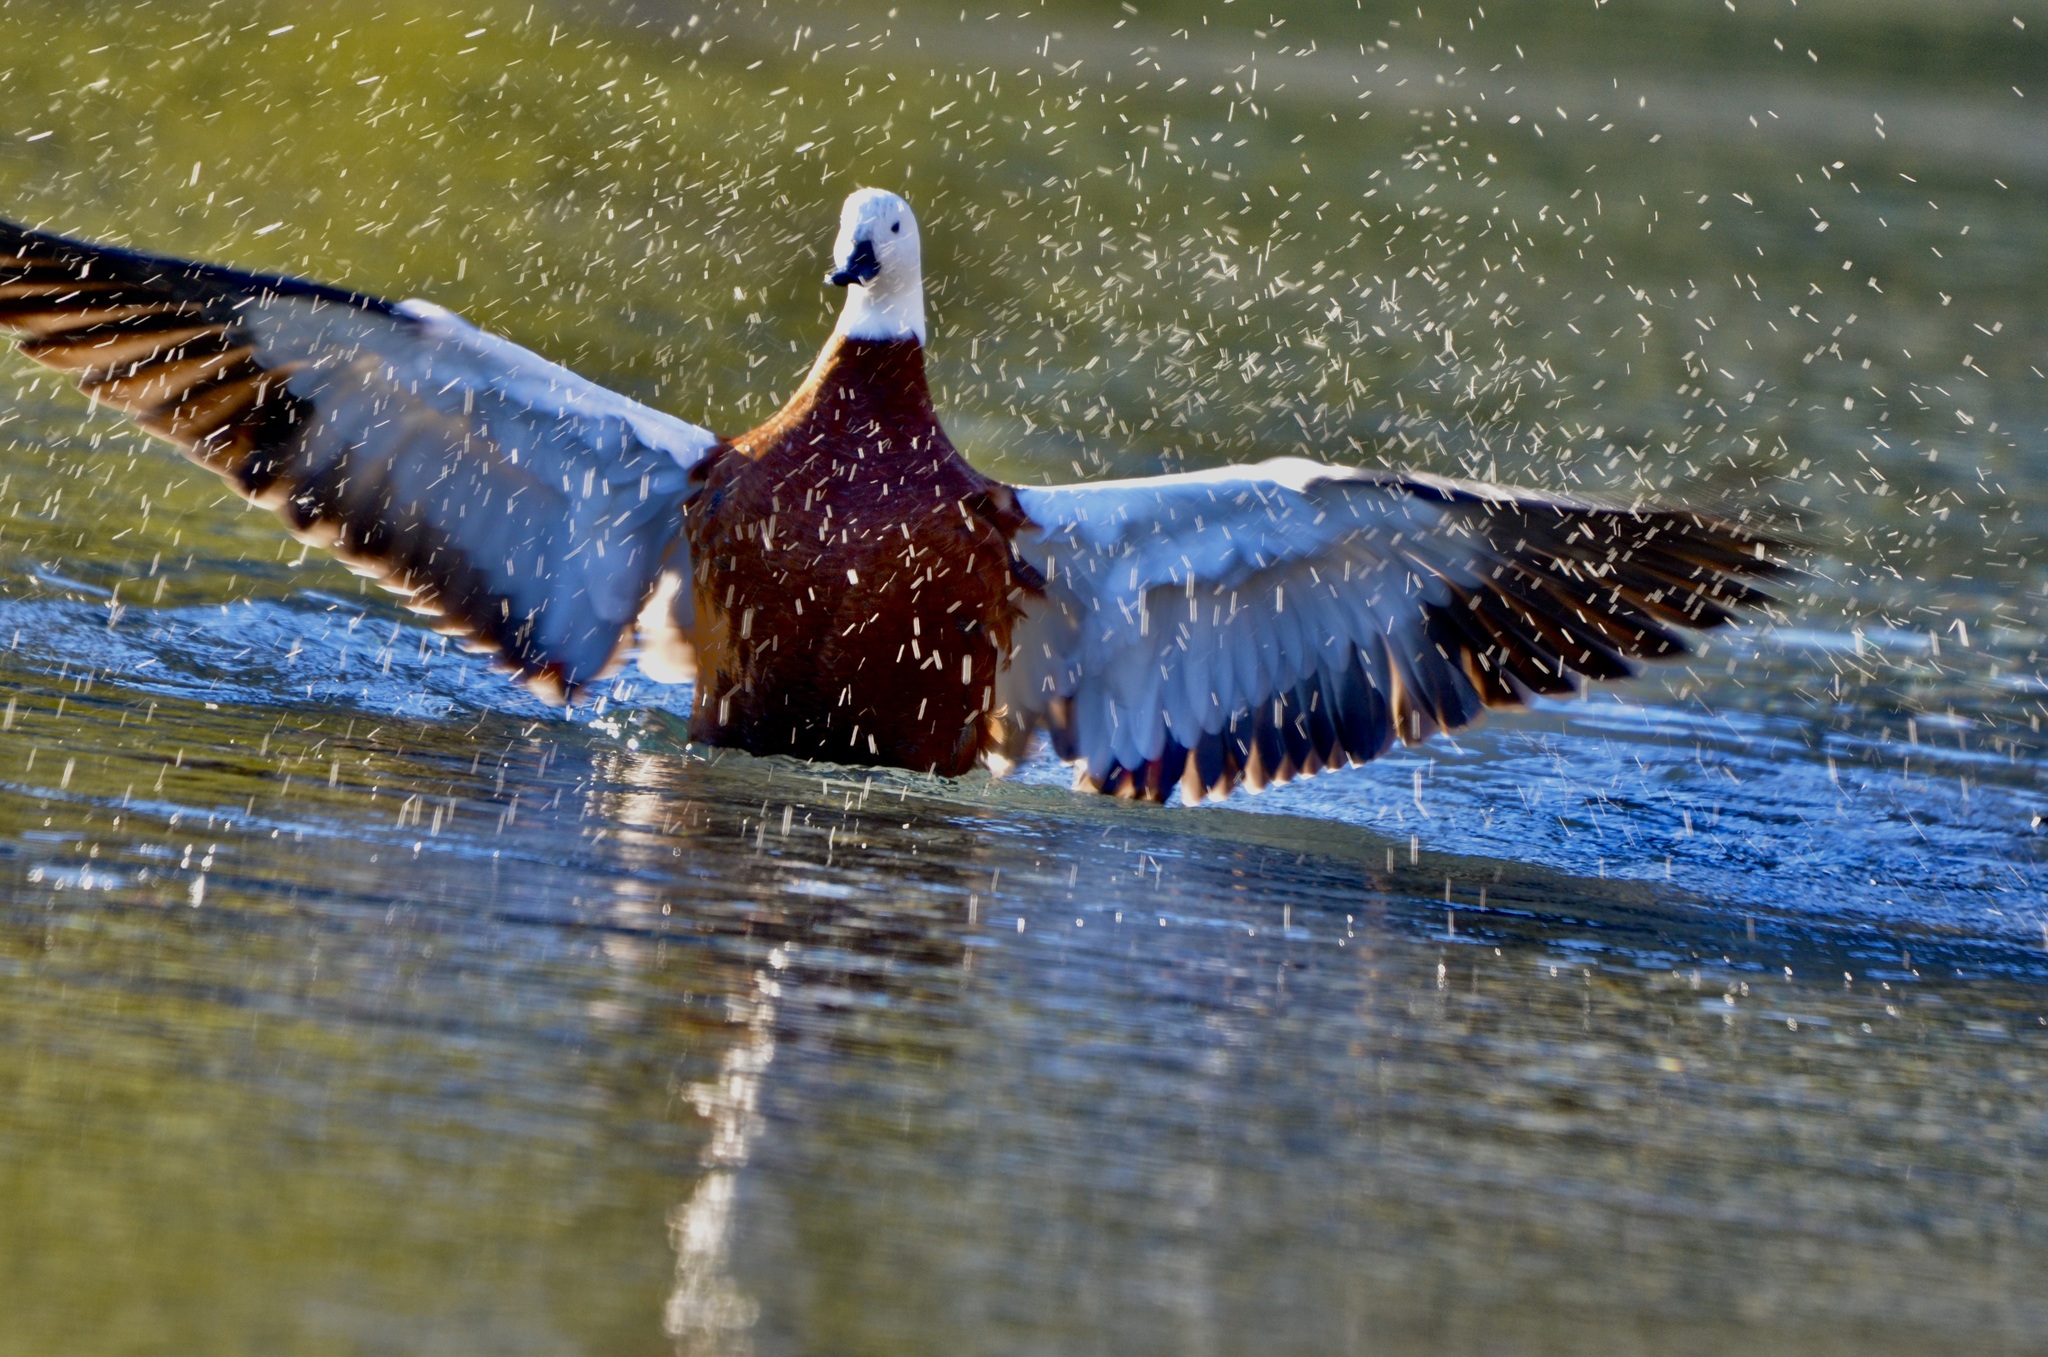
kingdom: Animalia
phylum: Chordata
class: Aves
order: Anseriformes
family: Anatidae
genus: Tadorna
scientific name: Tadorna variegata
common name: Paradise shelduck
